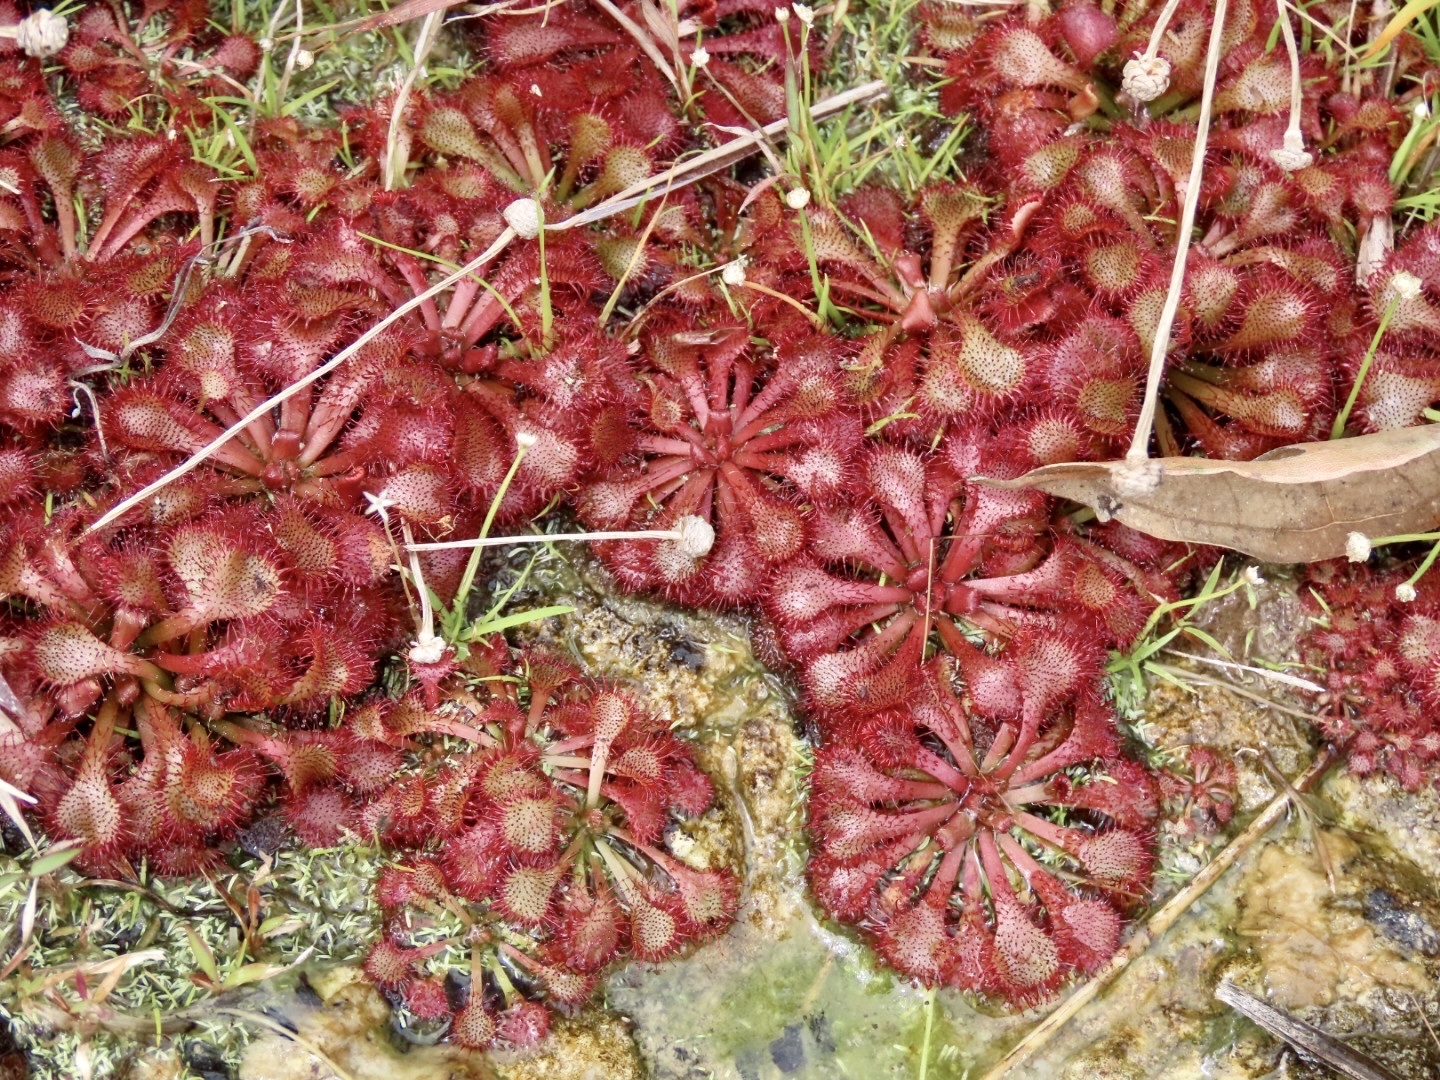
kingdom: Plantae
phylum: Tracheophyta
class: Magnoliopsida
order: Caryophyllales
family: Droseraceae
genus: Drosera
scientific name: Drosera spatulata
